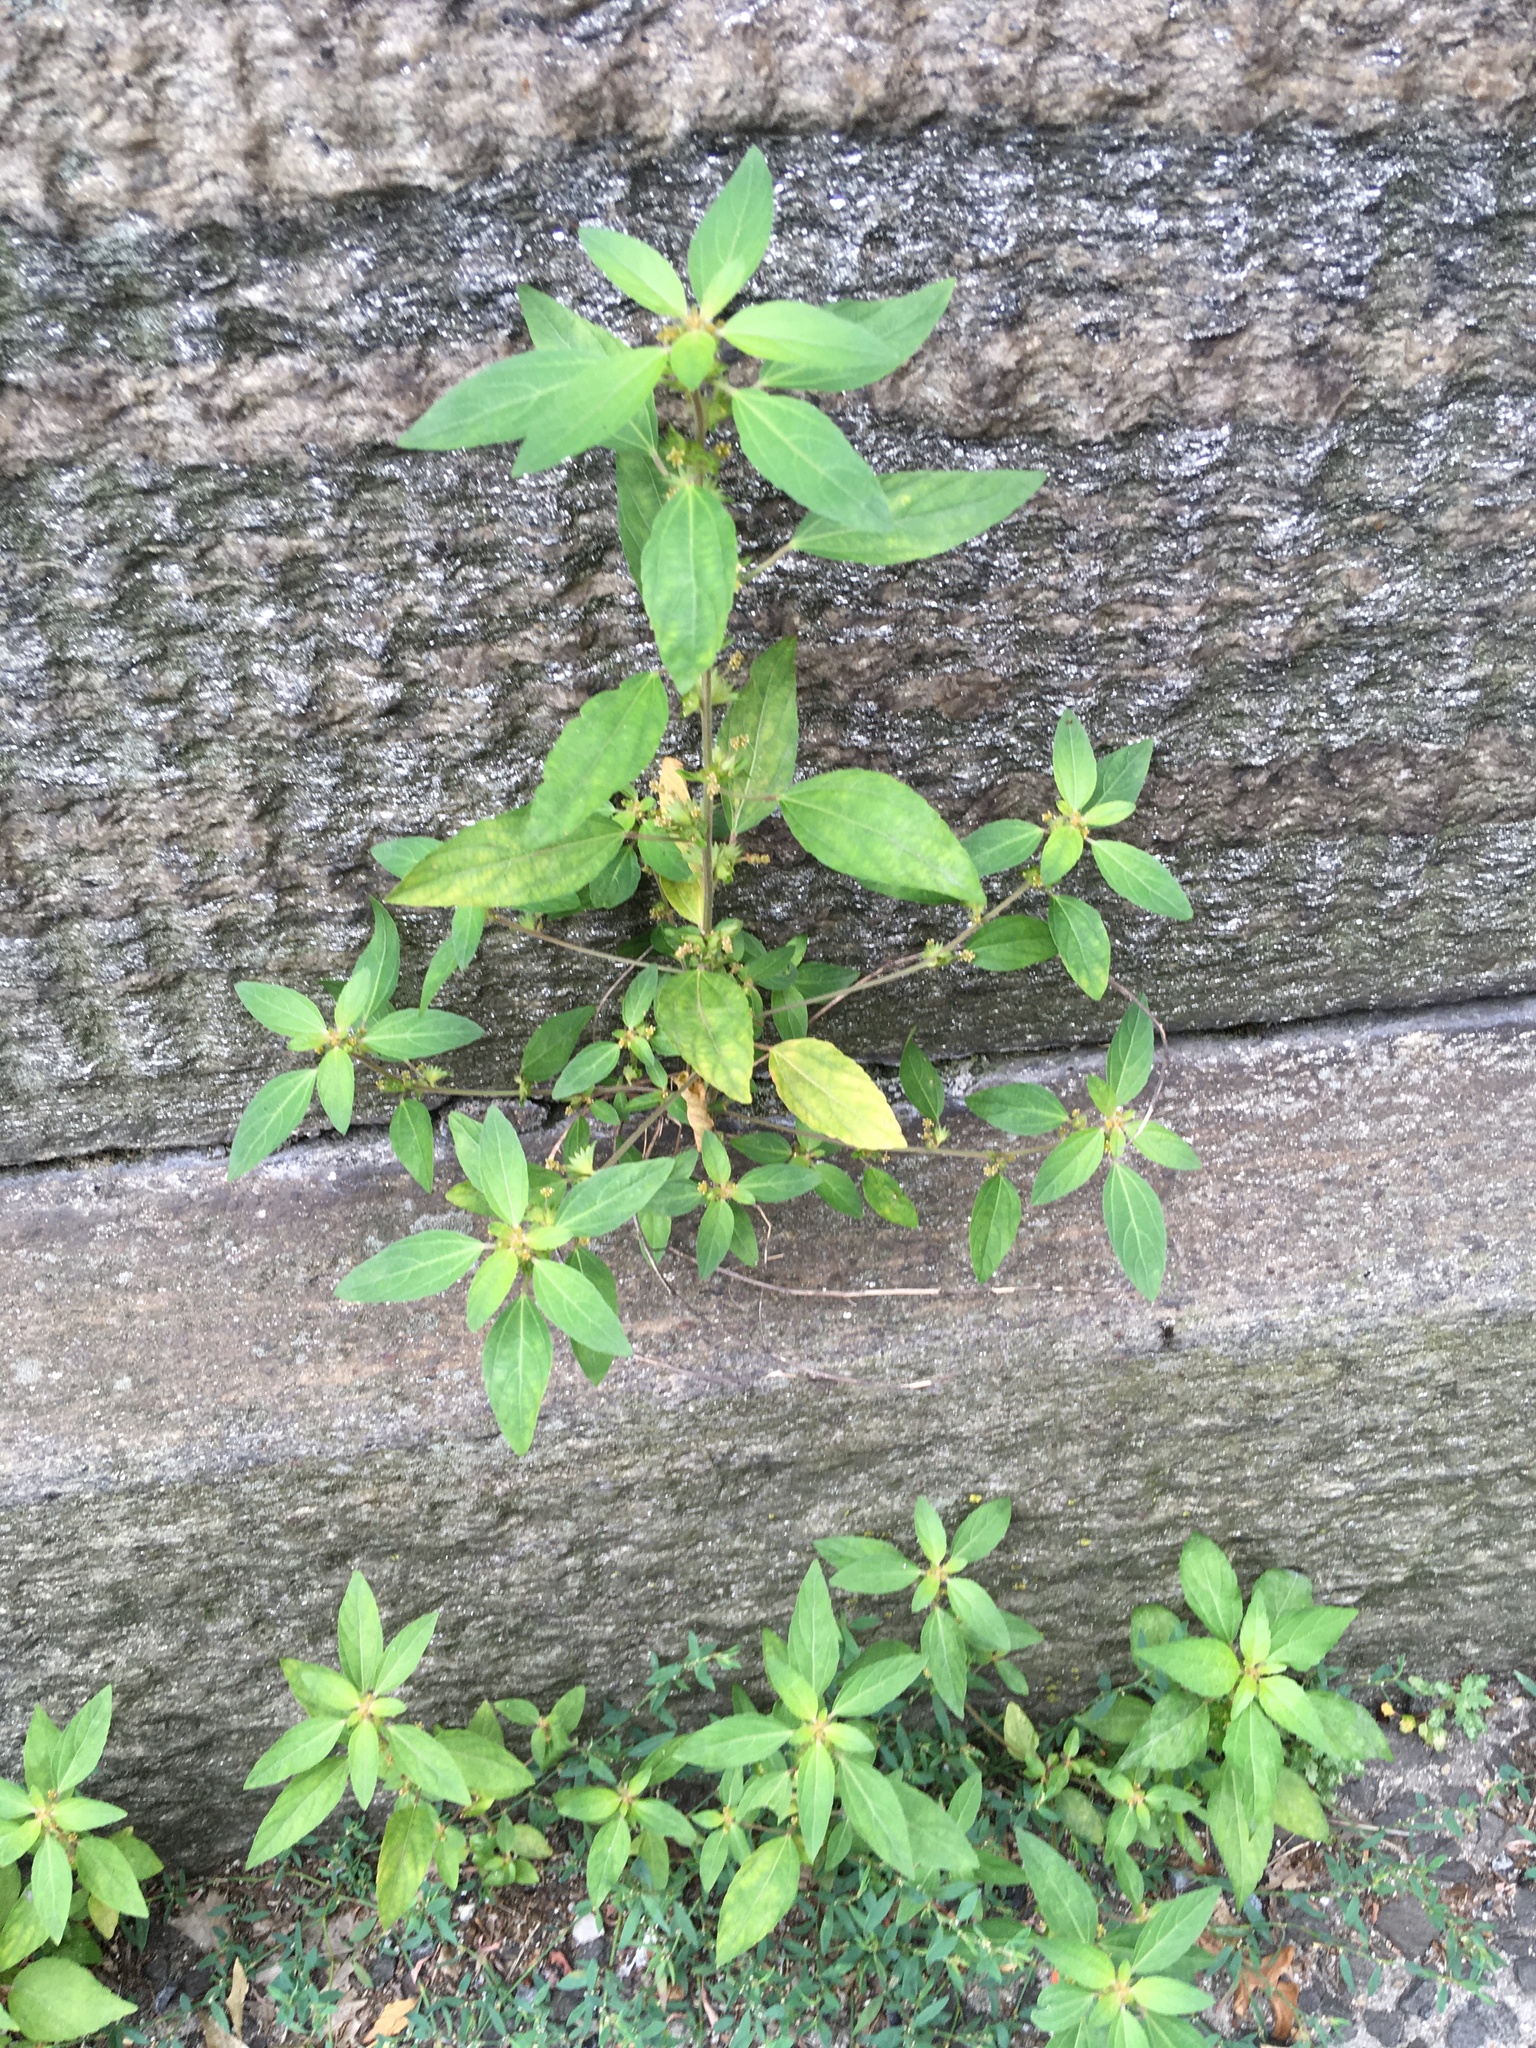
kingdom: Plantae
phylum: Tracheophyta
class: Magnoliopsida
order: Malpighiales
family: Euphorbiaceae
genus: Acalypha
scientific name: Acalypha rhomboidea
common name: Rhombic copperleaf
